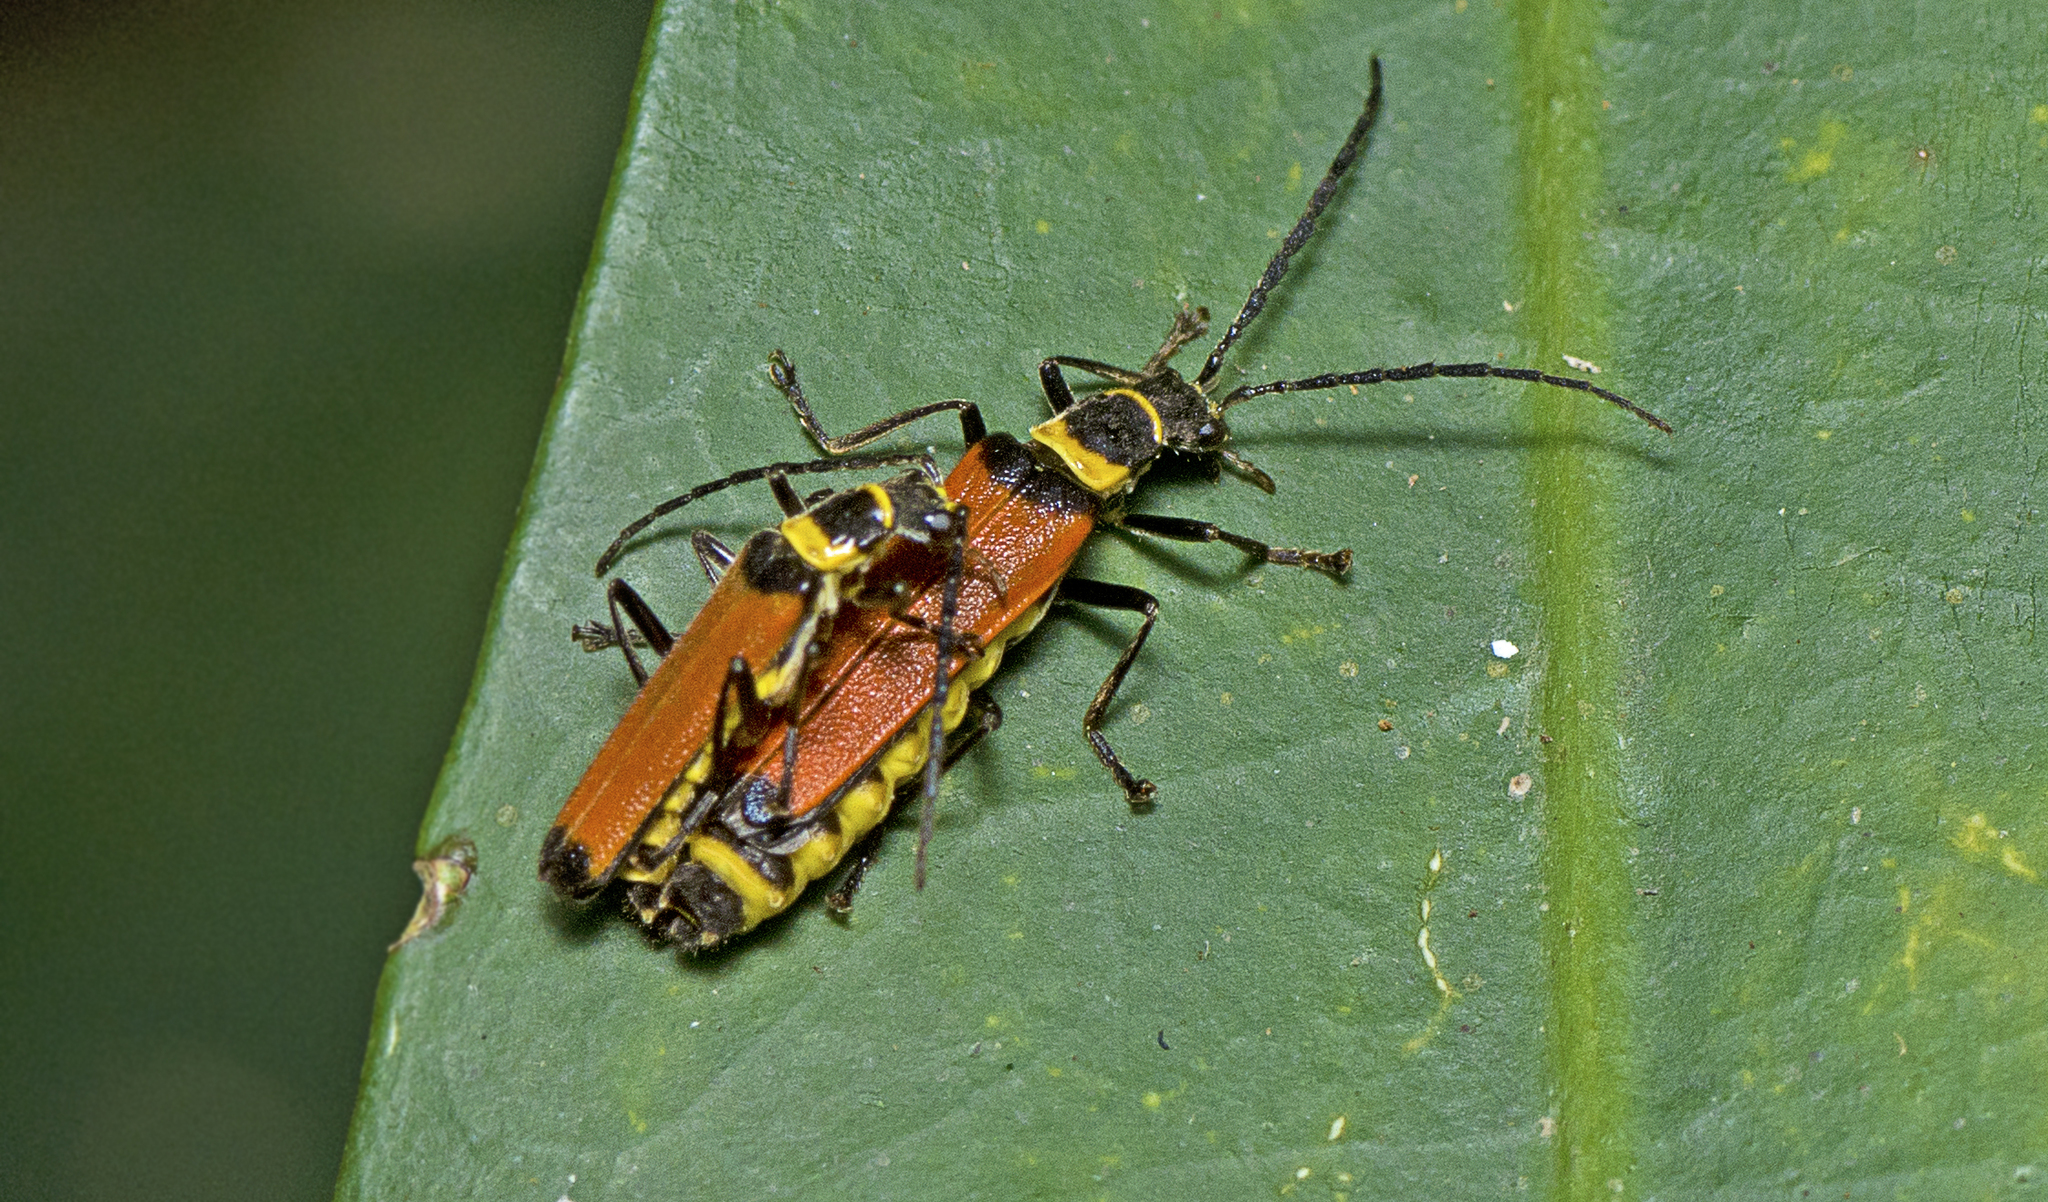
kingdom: Animalia
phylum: Arthropoda
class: Insecta
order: Coleoptera
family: Cantharidae
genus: Chauliognathus
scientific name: Chauliognathus
